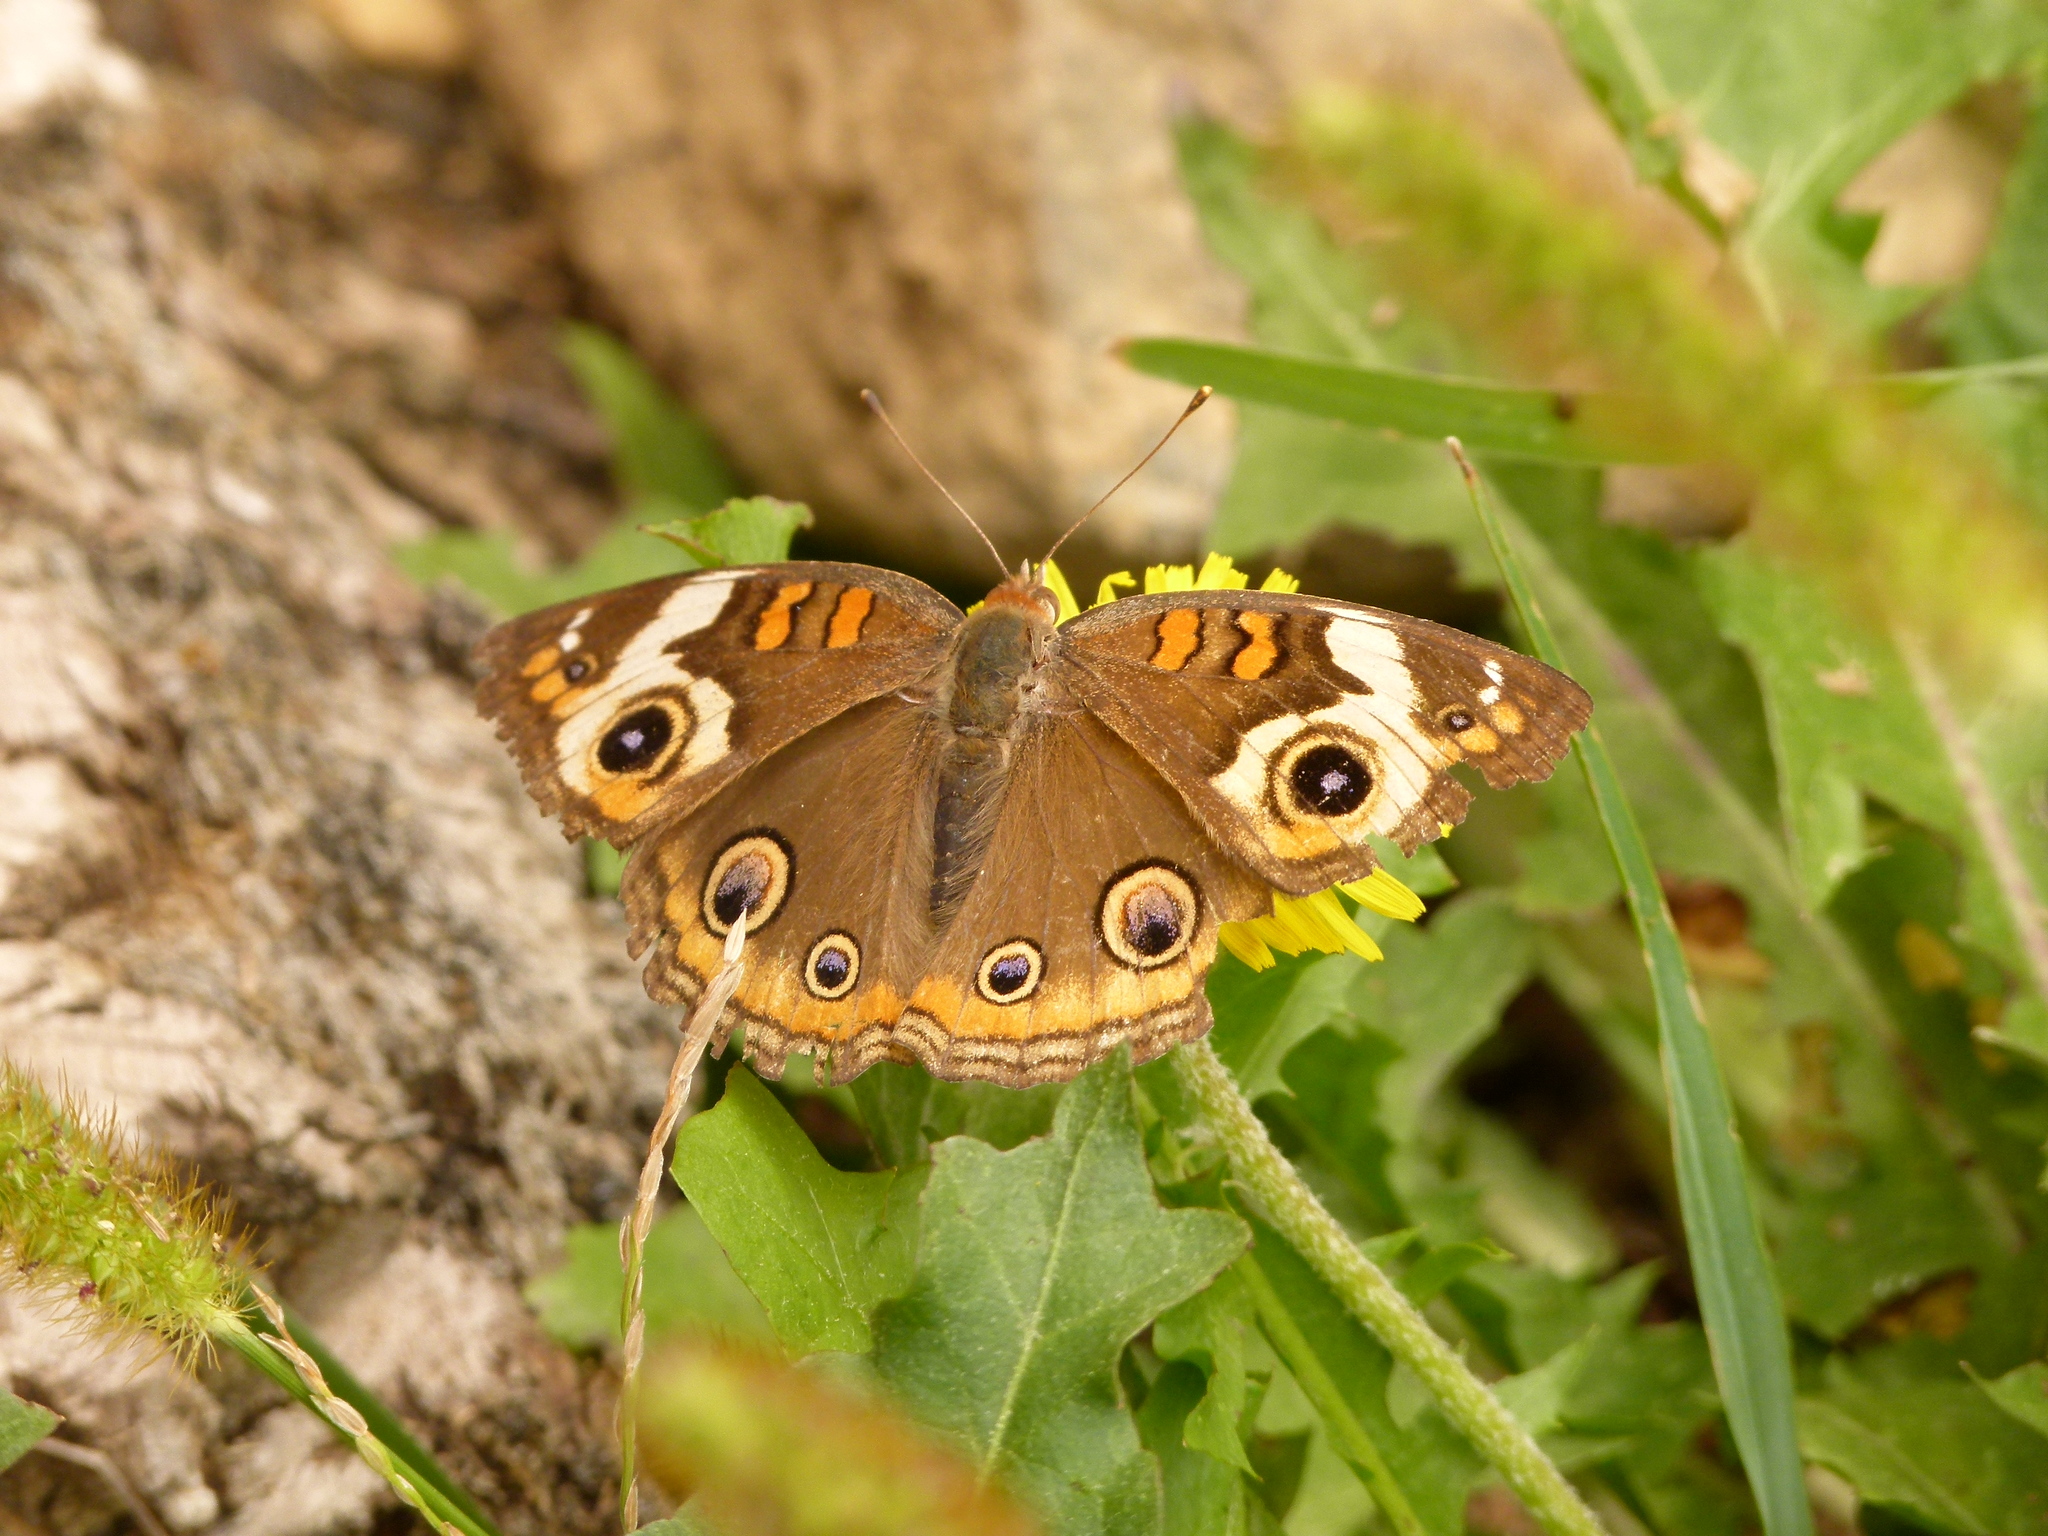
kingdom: Animalia
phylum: Arthropoda
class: Insecta
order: Lepidoptera
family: Nymphalidae
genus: Junonia
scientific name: Junonia coenia
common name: Common buckeye
